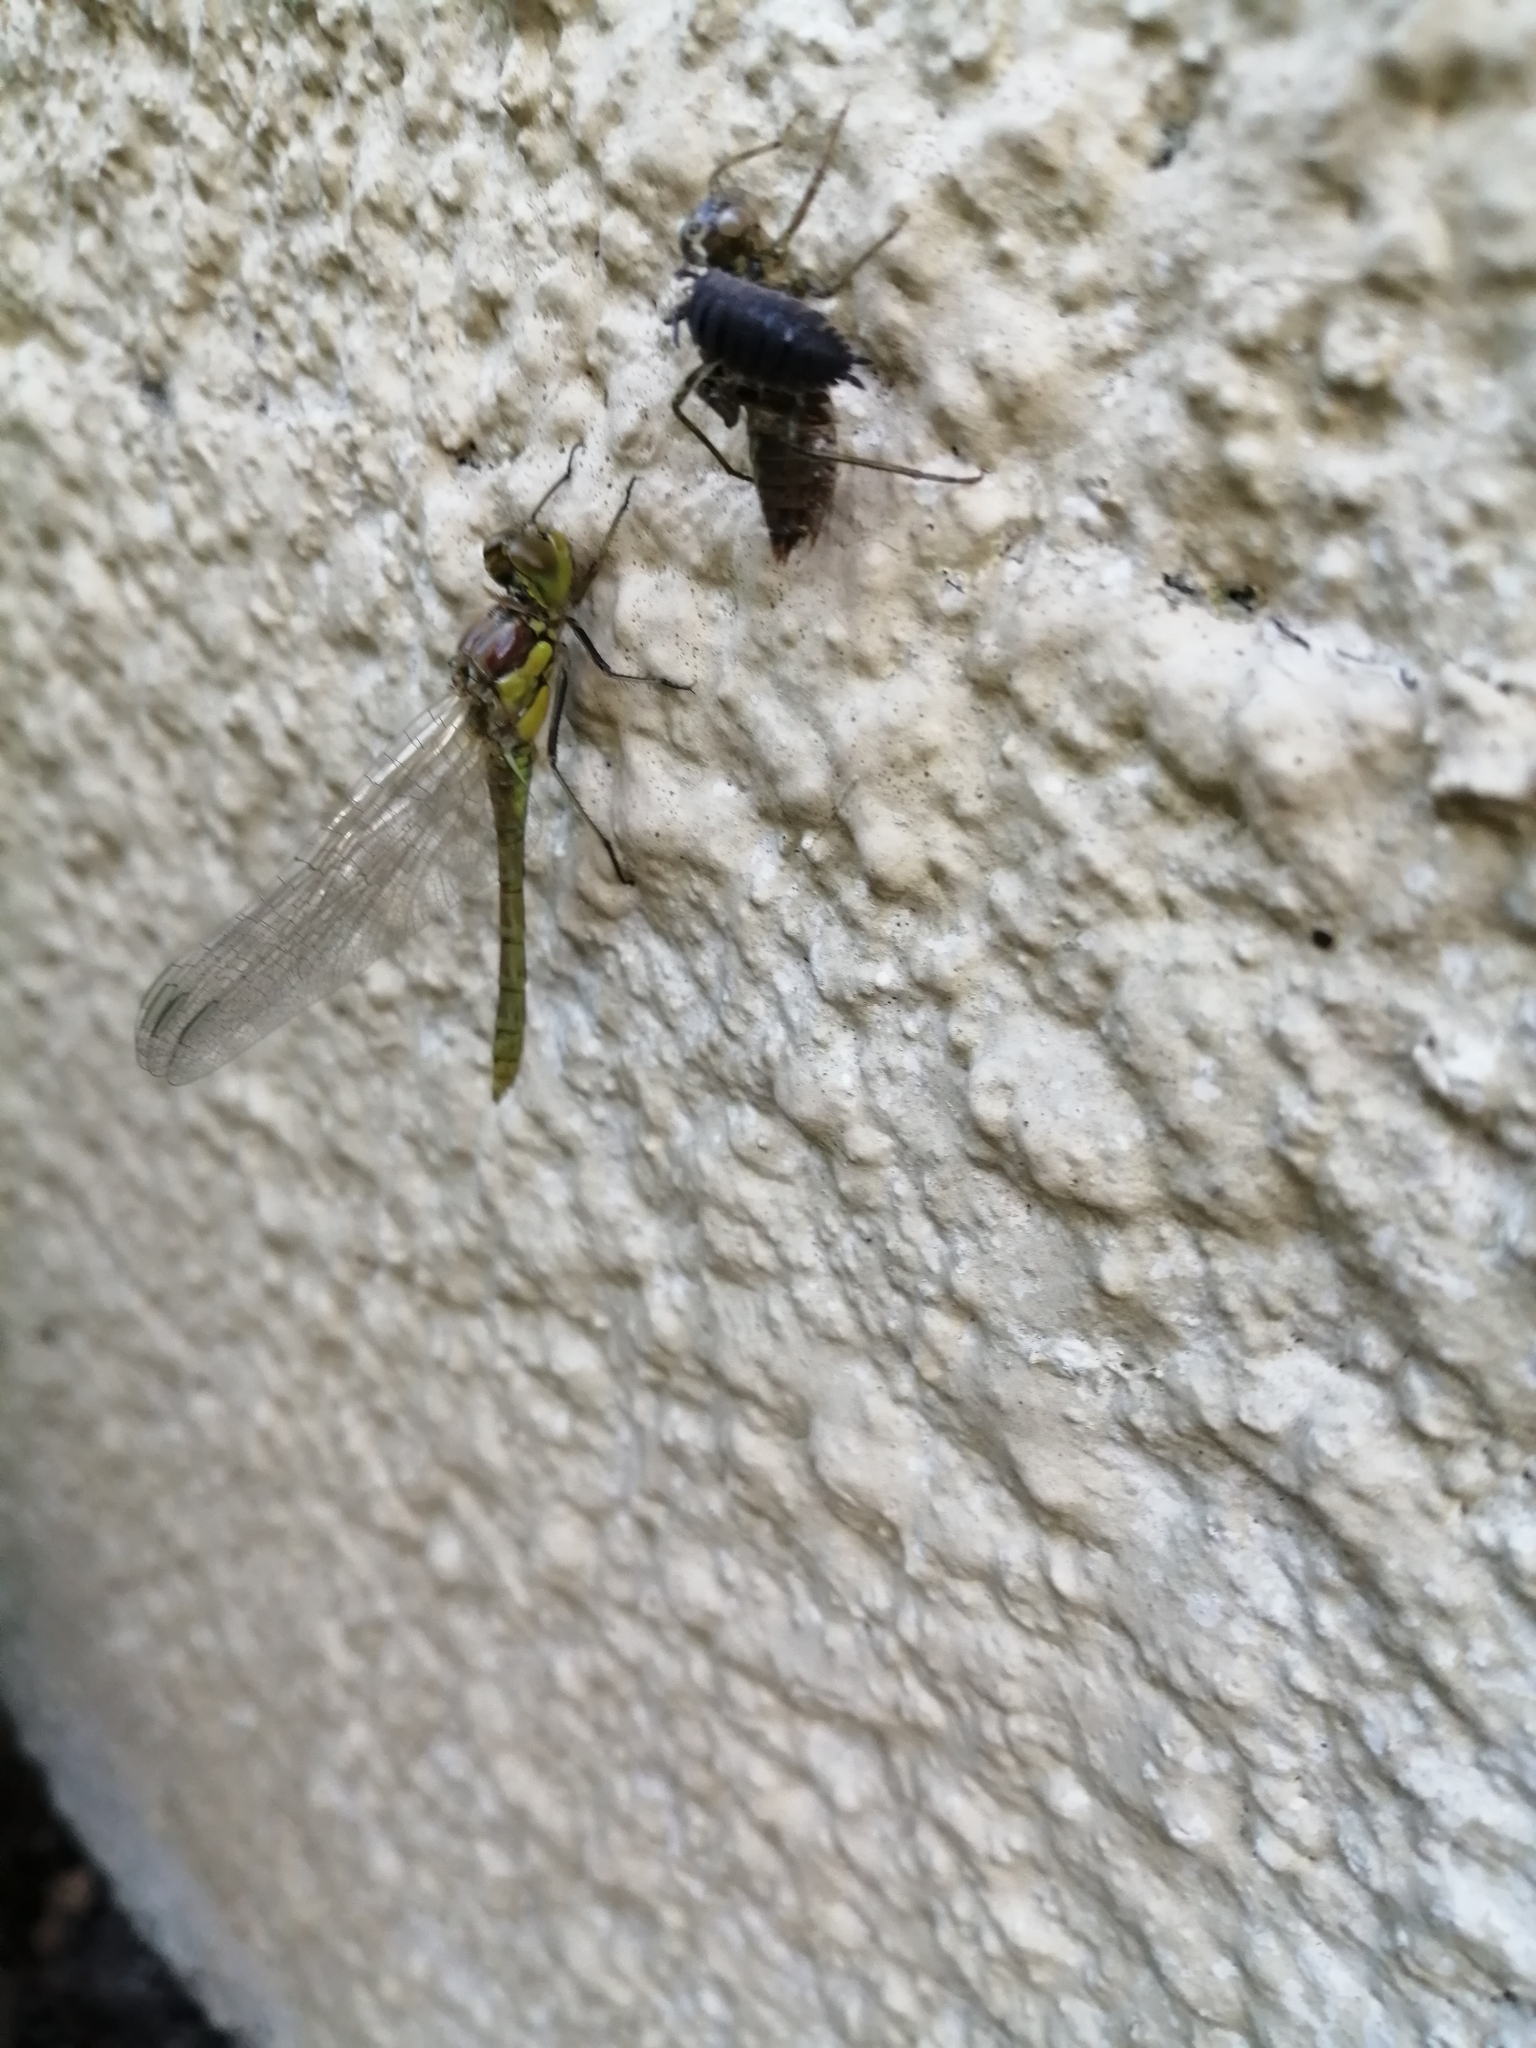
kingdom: Animalia
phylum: Arthropoda
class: Insecta
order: Odonata
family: Libellulidae
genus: Sympetrum
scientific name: Sympetrum striolatum
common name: Common darter
